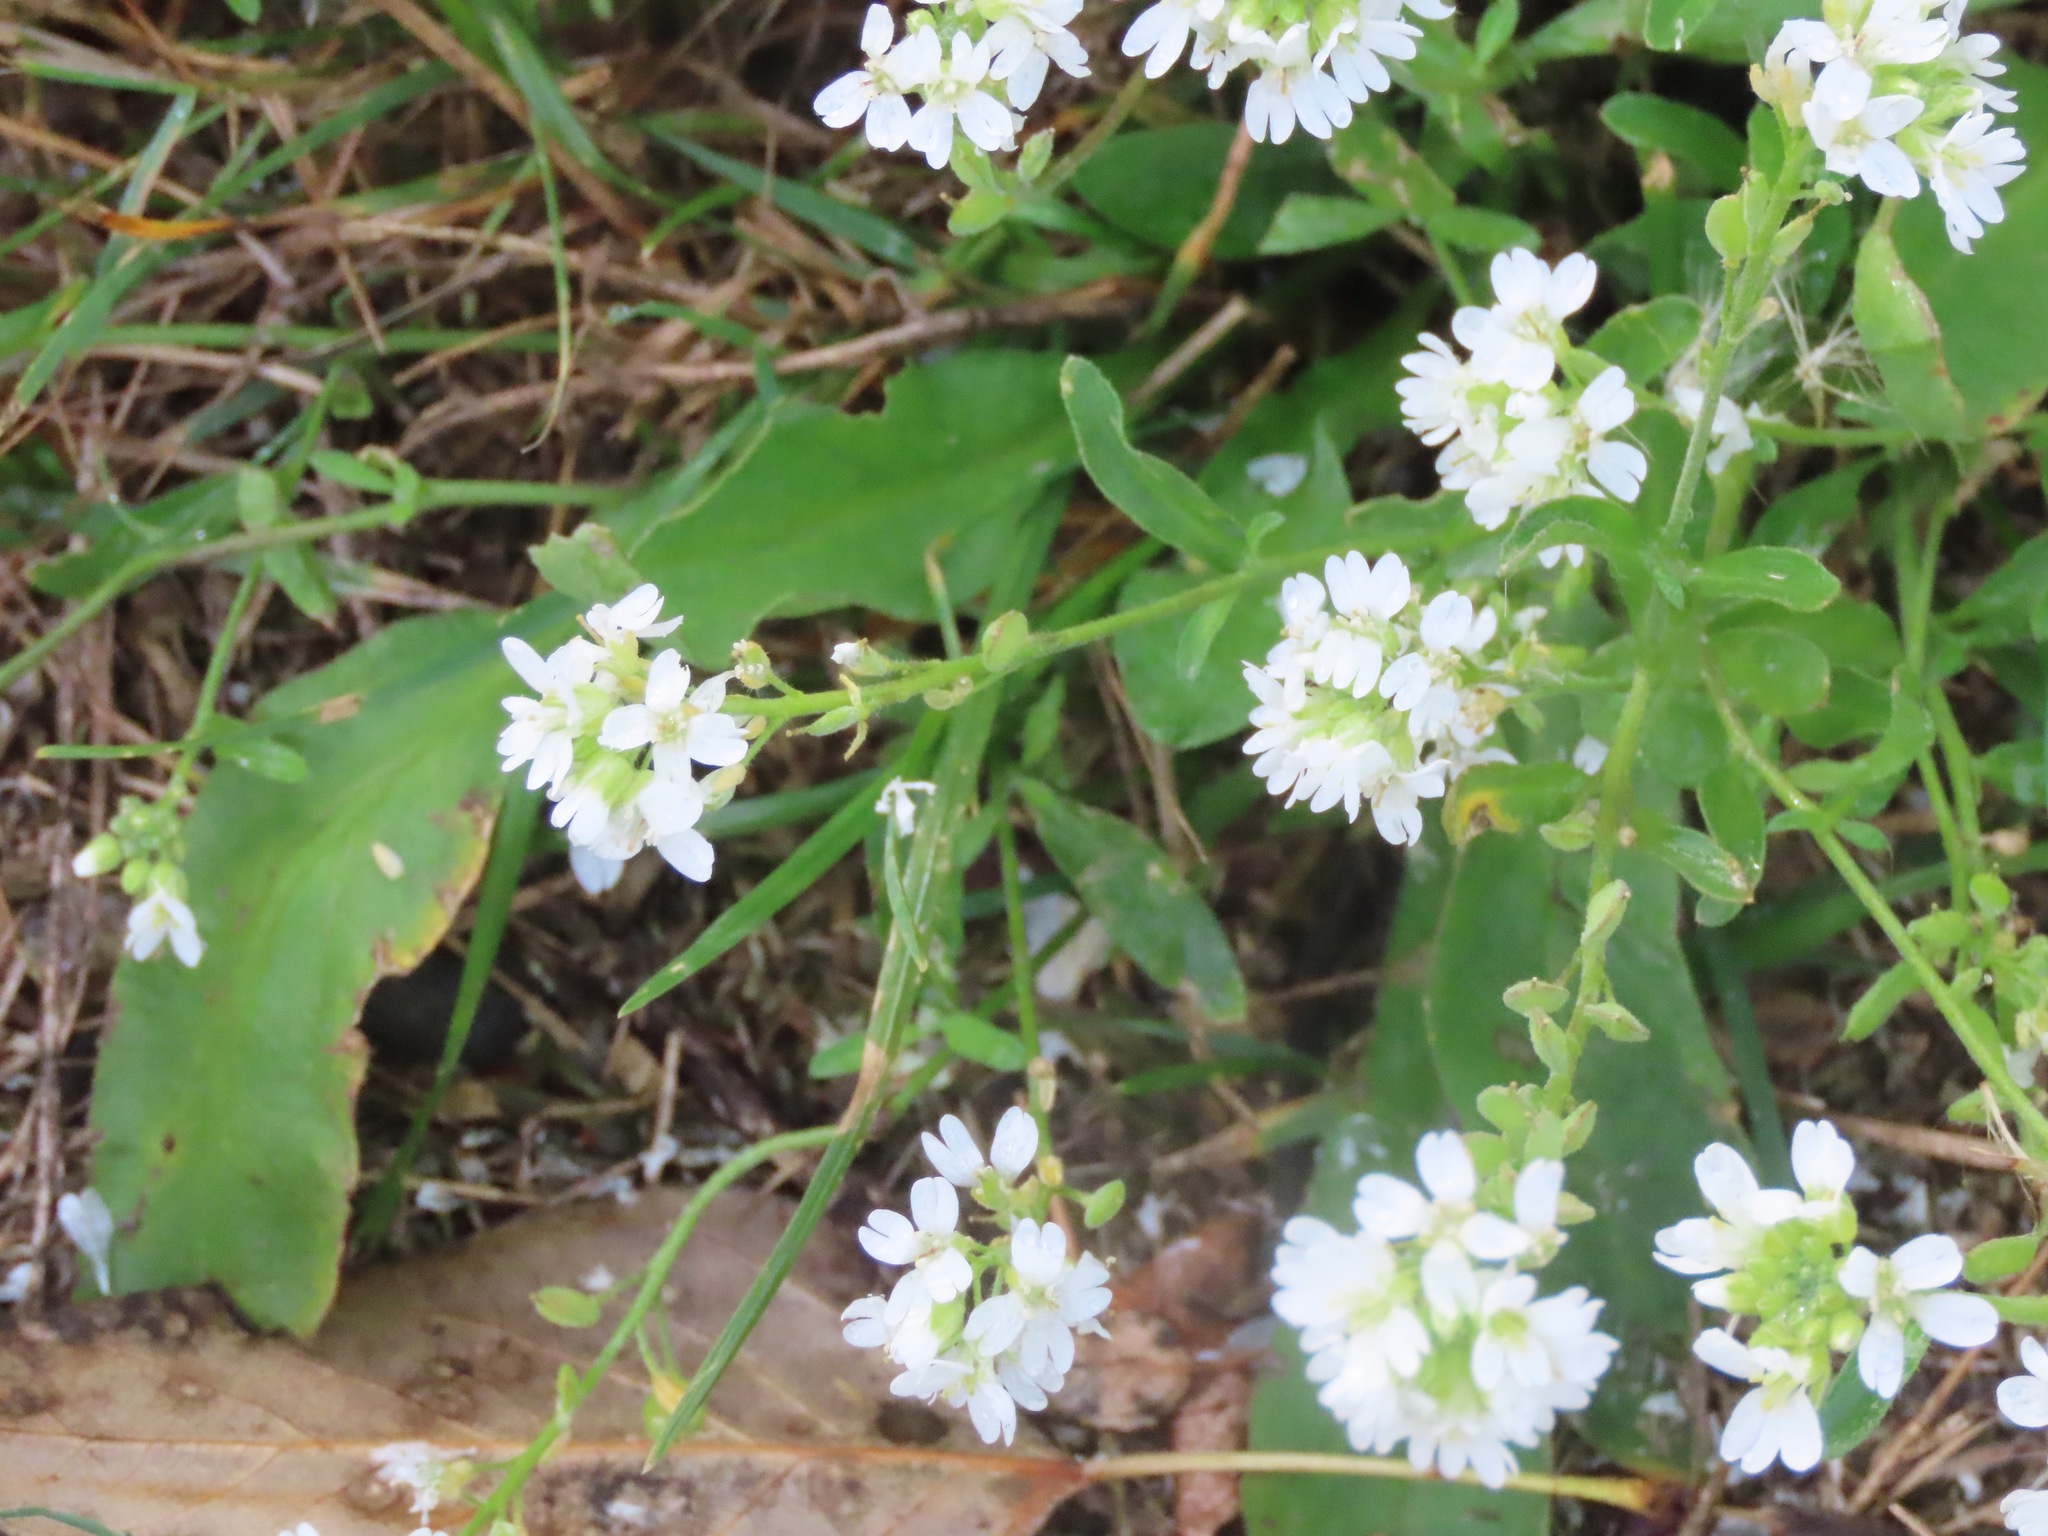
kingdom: Plantae
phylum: Tracheophyta
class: Magnoliopsida
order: Brassicales
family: Brassicaceae
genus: Berteroa
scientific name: Berteroa incana
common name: Hoary alison
